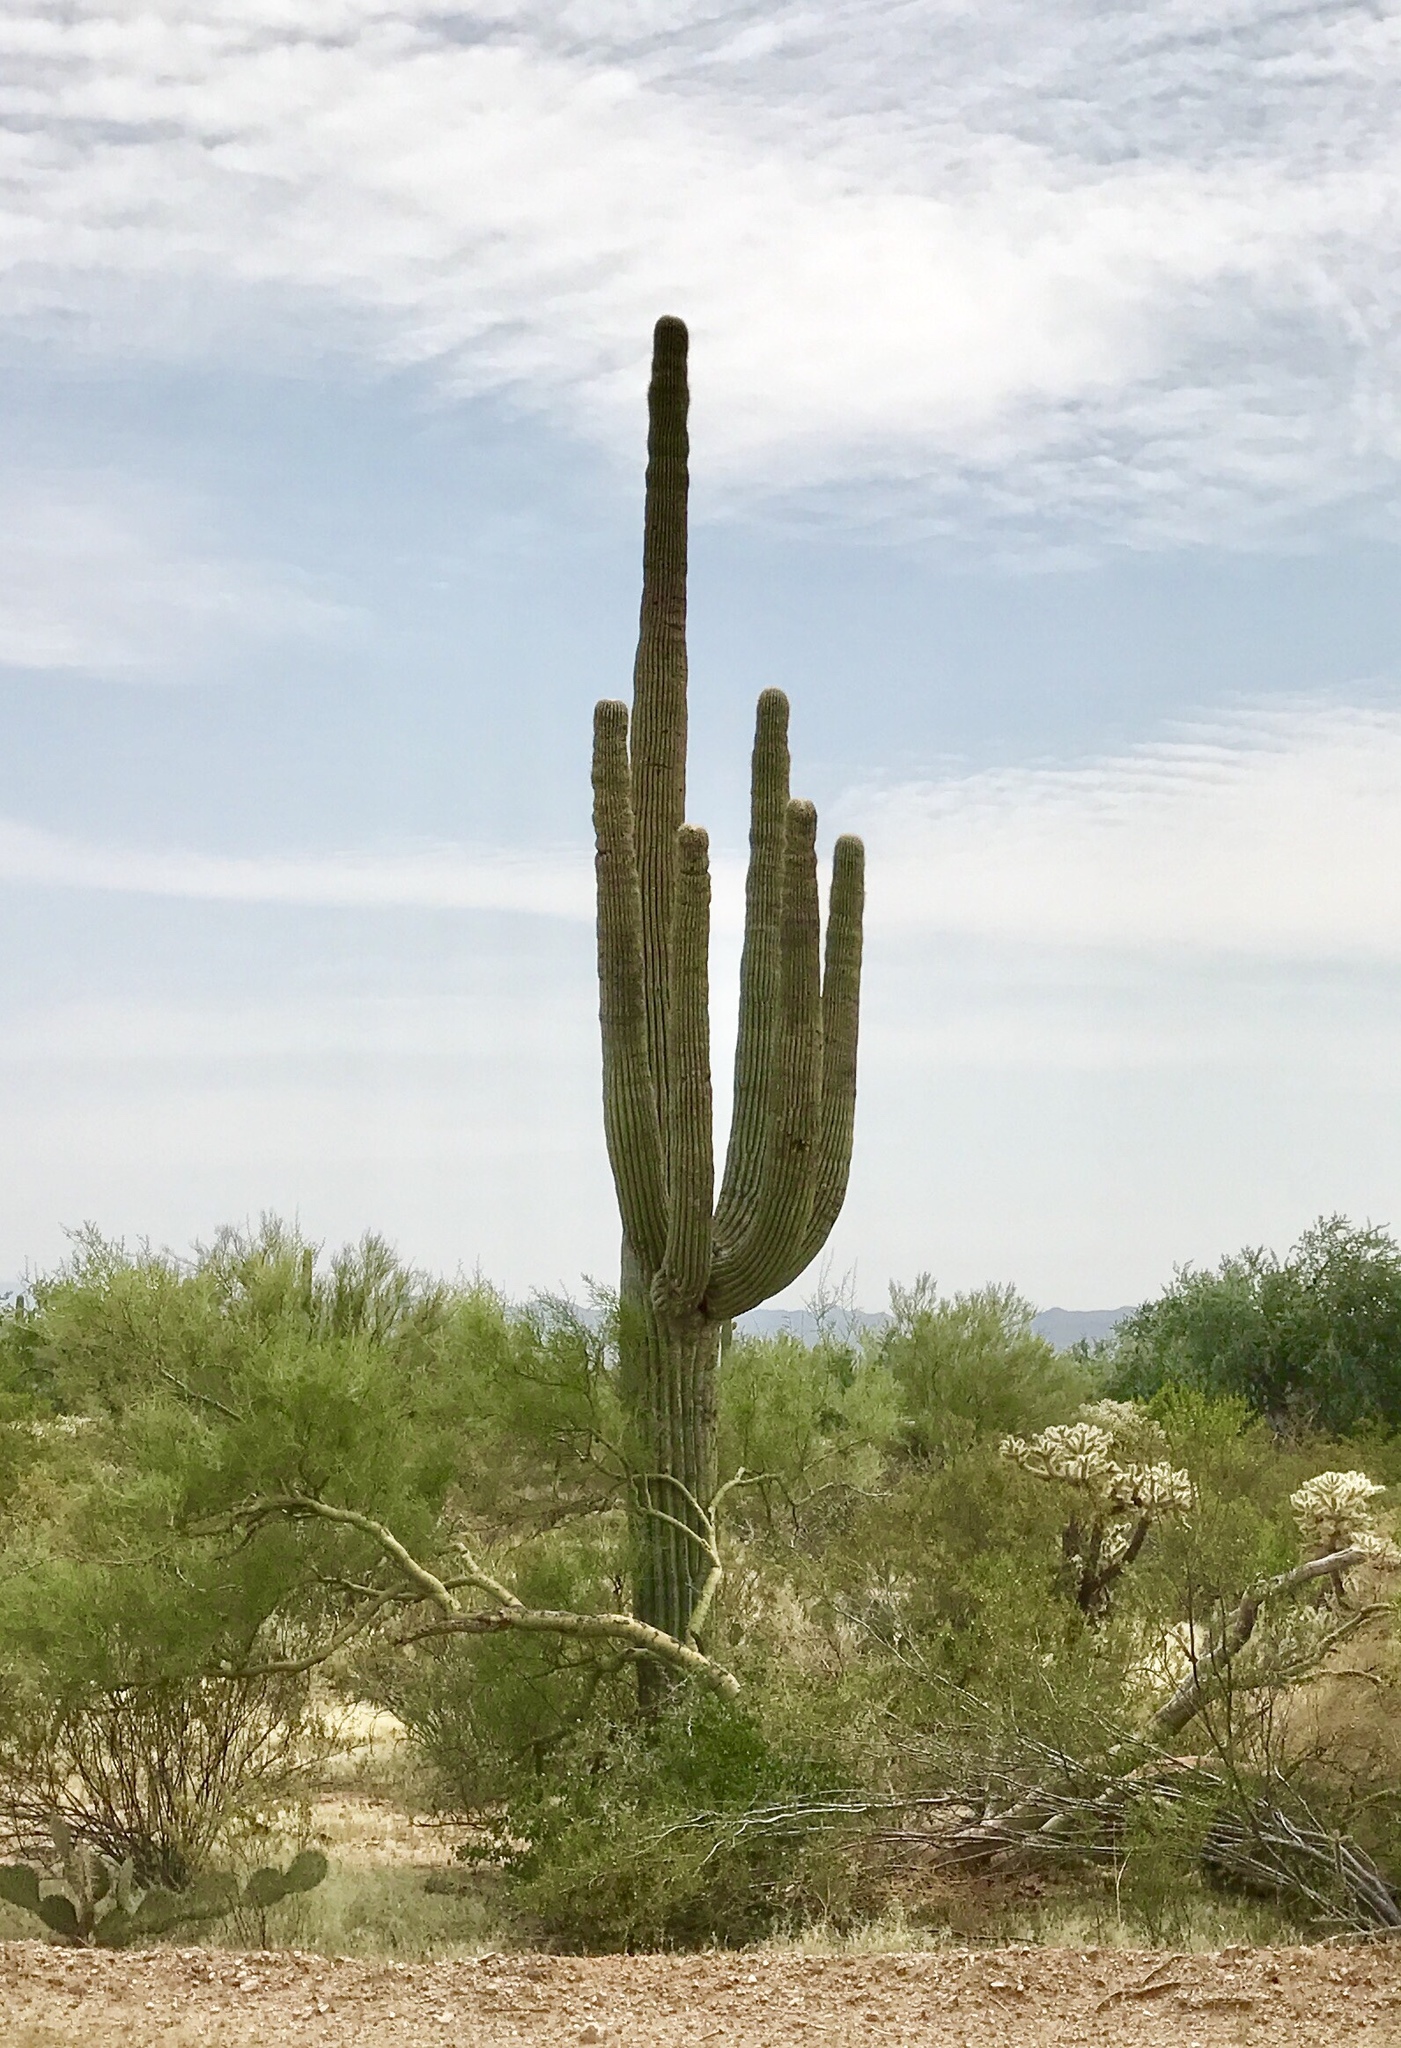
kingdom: Plantae
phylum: Tracheophyta
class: Magnoliopsida
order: Caryophyllales
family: Cactaceae
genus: Carnegiea
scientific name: Carnegiea gigantea
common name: Saguaro
